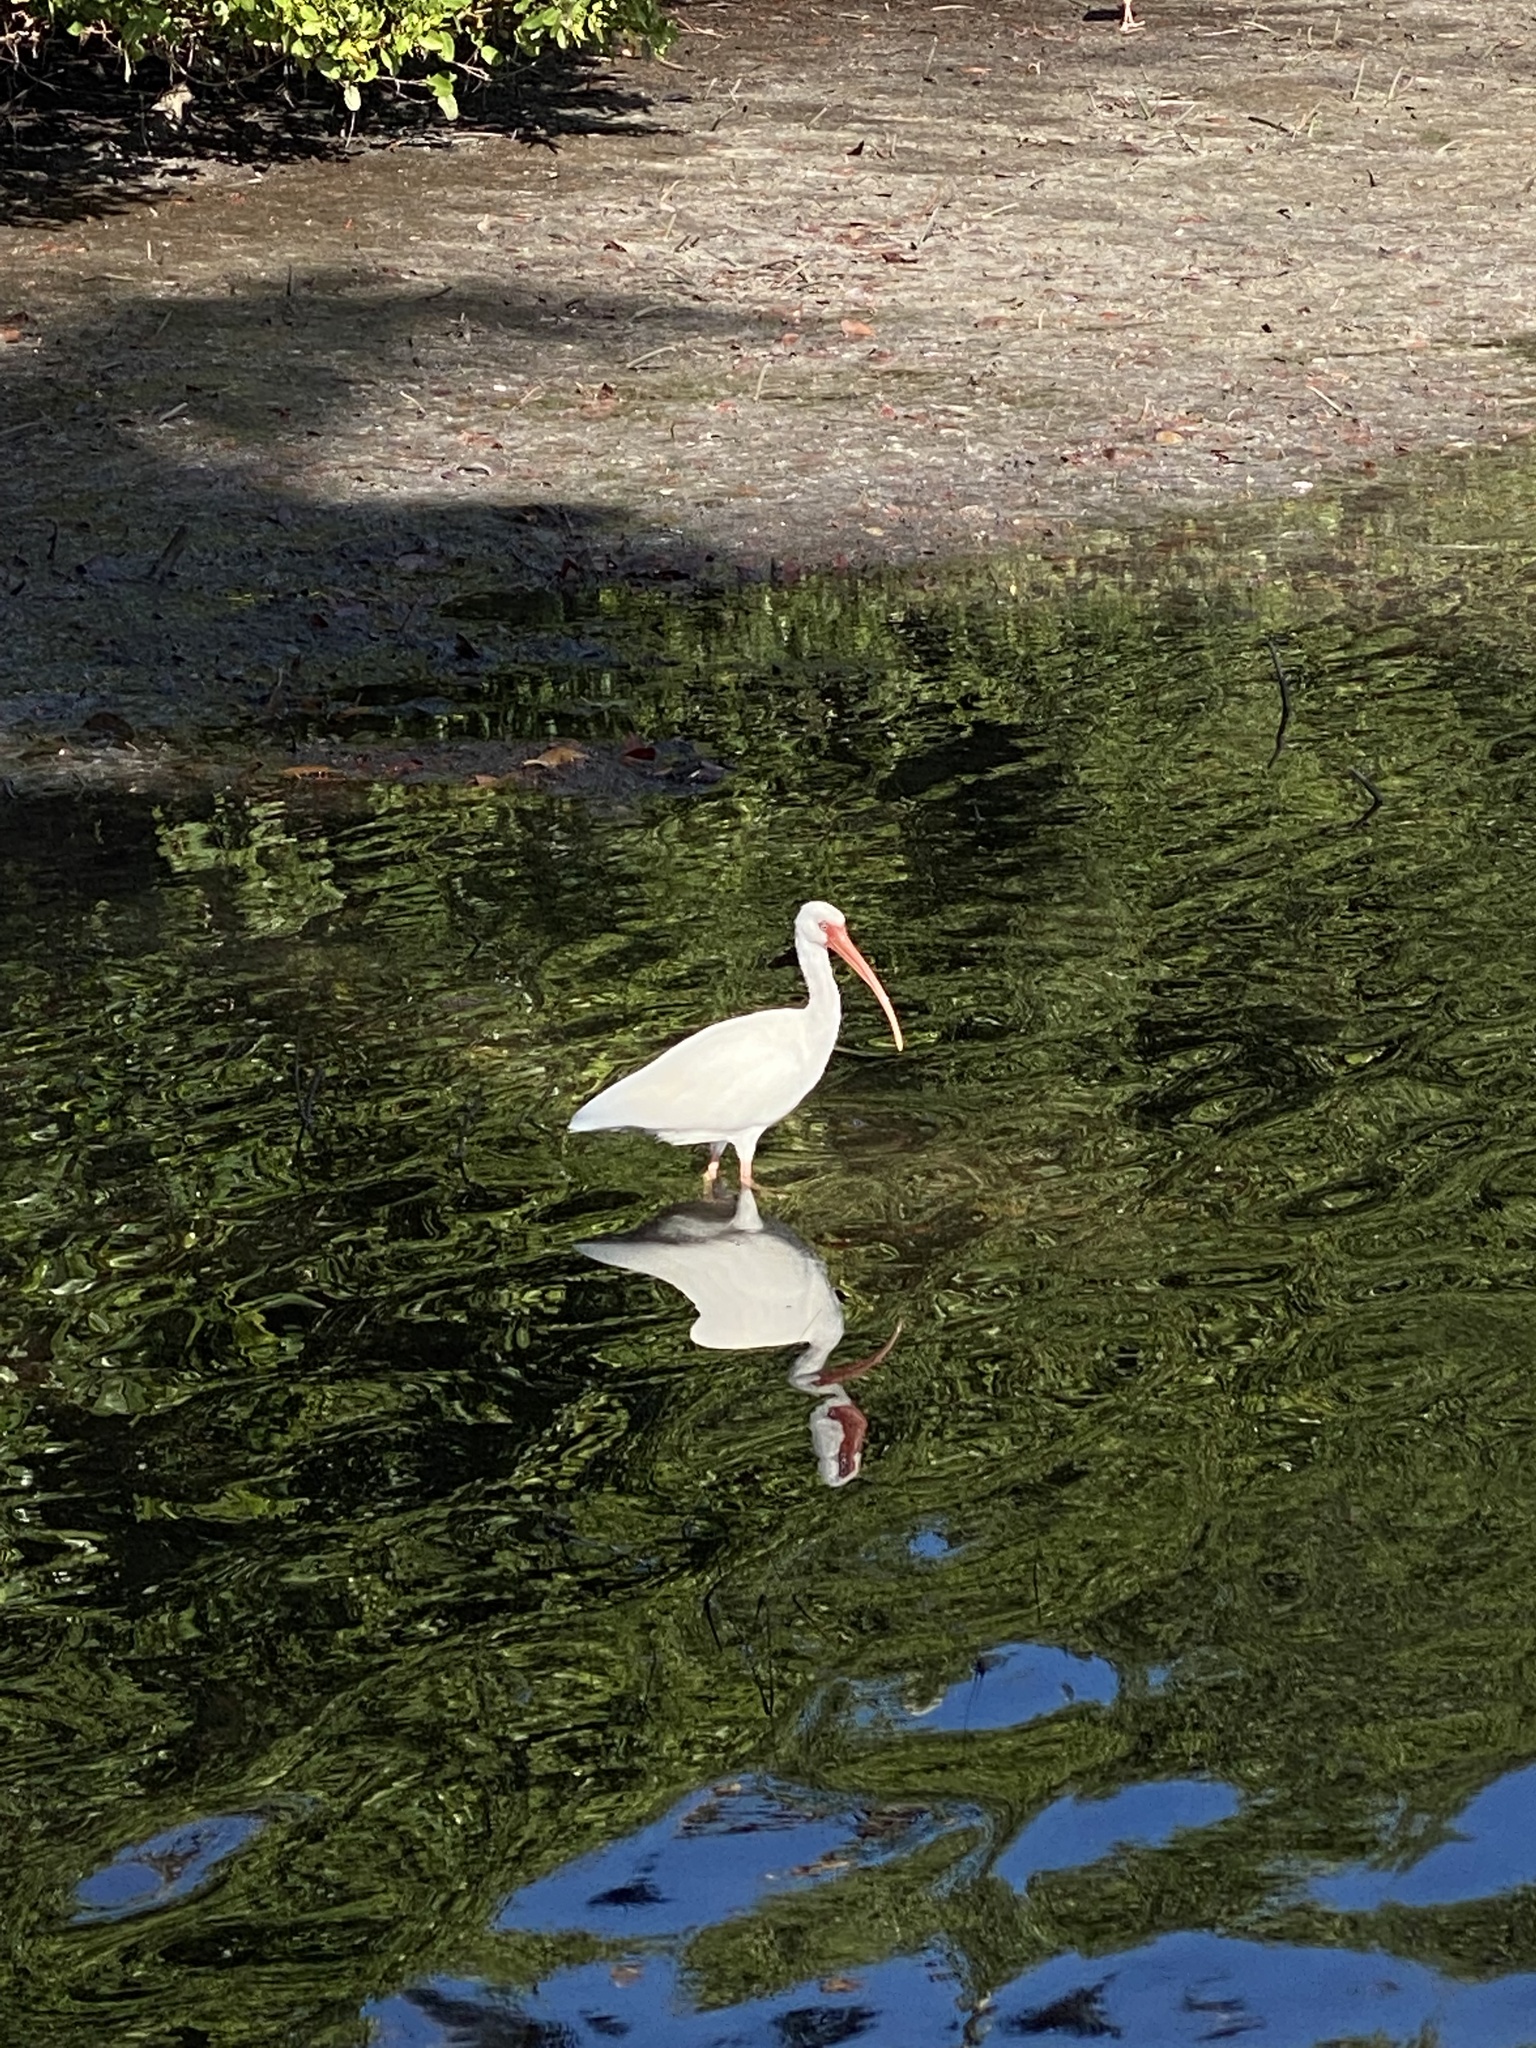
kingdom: Animalia
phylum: Chordata
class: Aves
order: Pelecaniformes
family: Threskiornithidae
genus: Eudocimus
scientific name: Eudocimus albus
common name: White ibis
